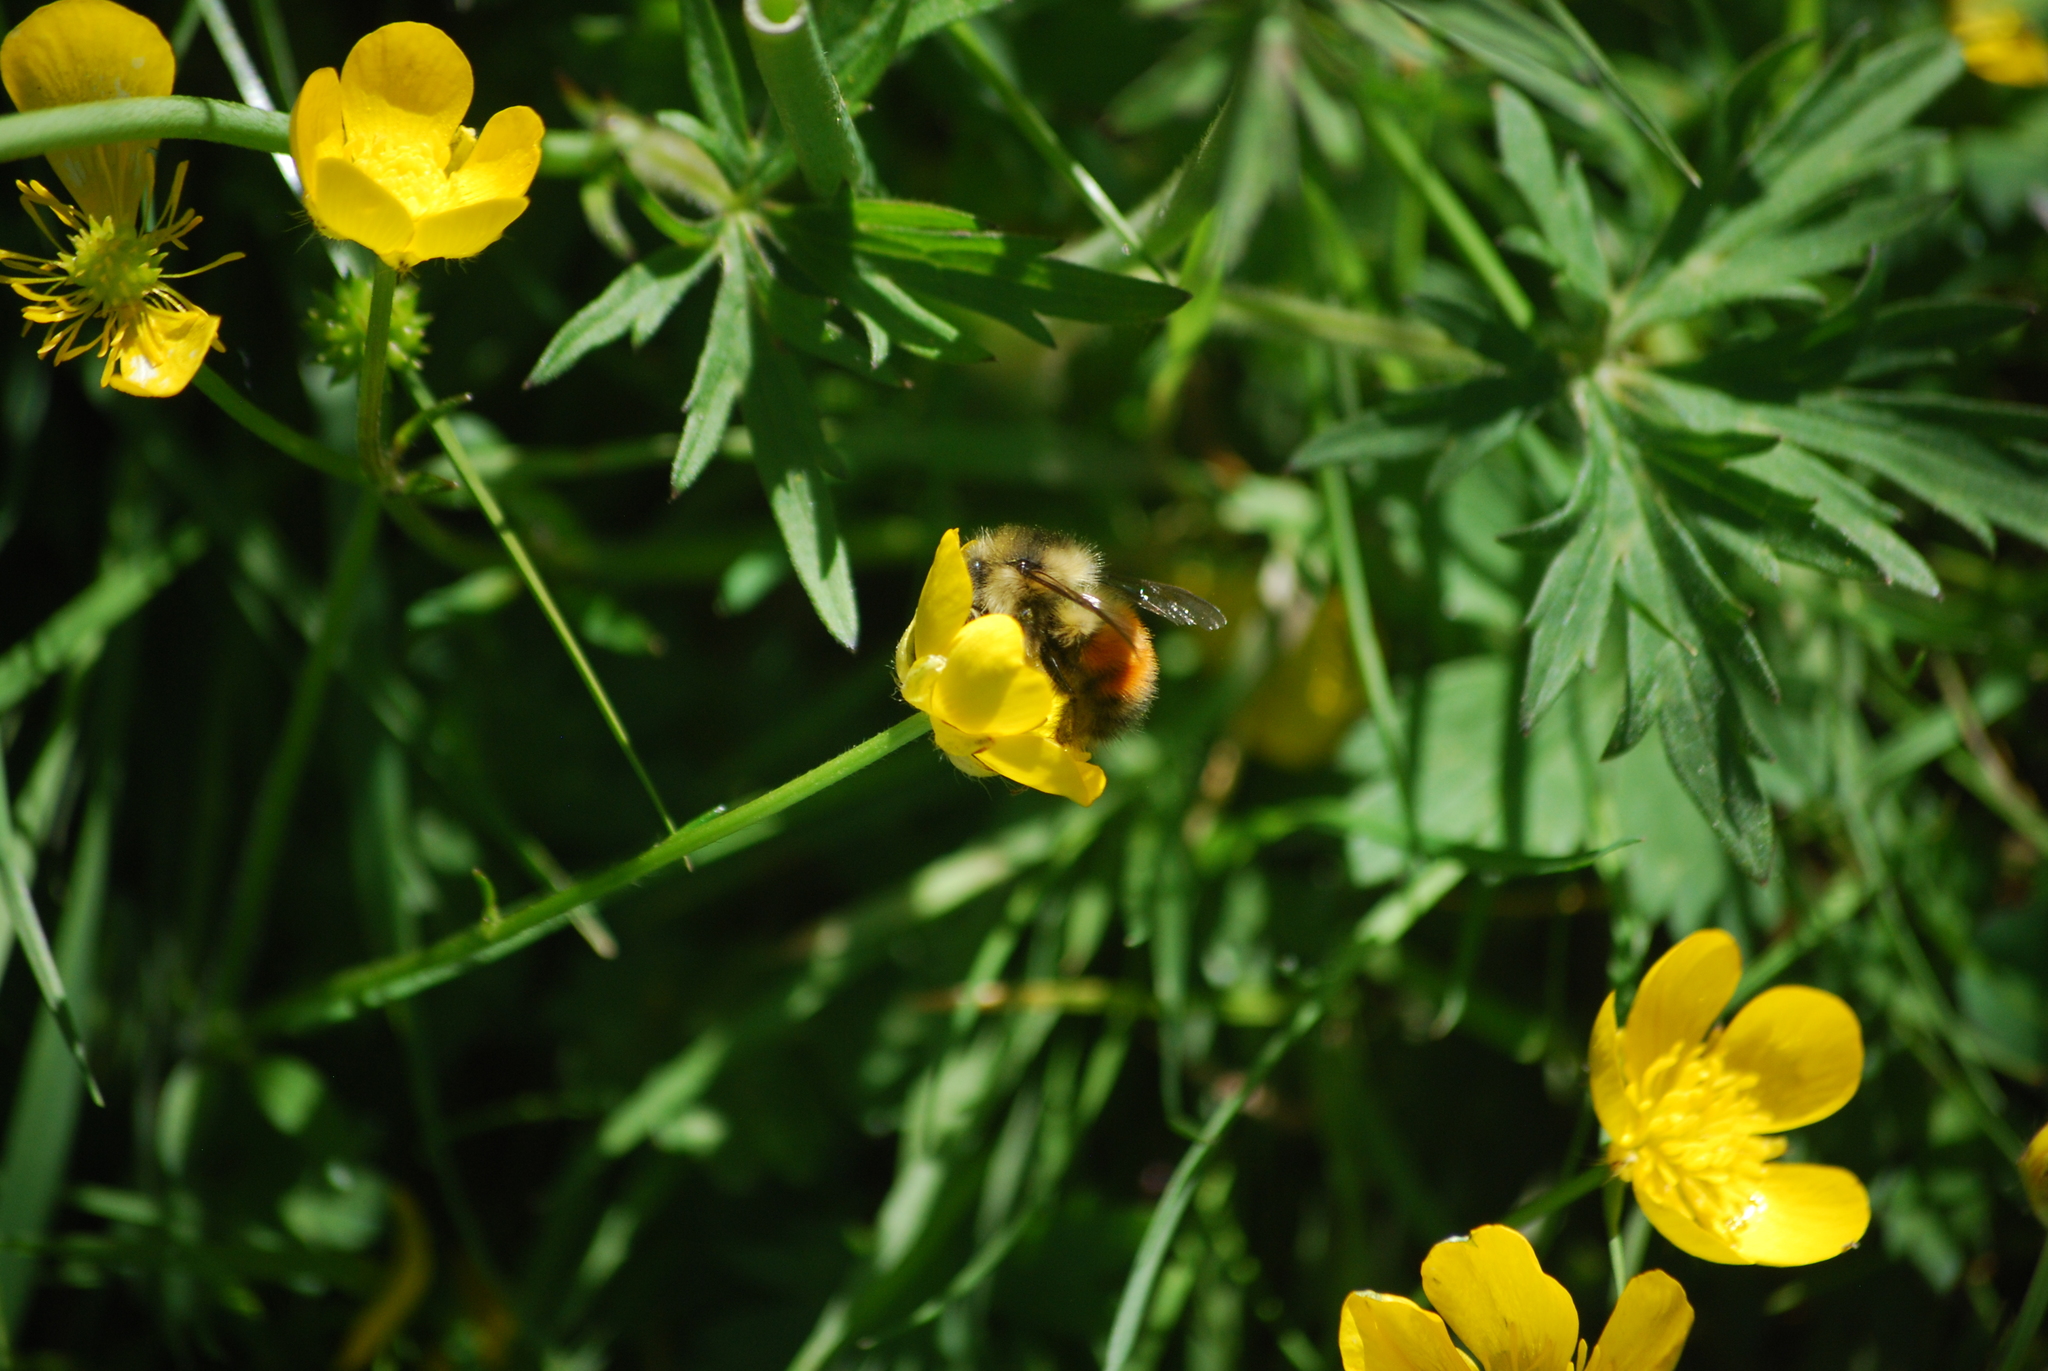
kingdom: Animalia
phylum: Arthropoda
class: Insecta
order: Hymenoptera
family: Apidae
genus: Bombus
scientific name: Bombus melanopygus
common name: Black tail bumble bee
